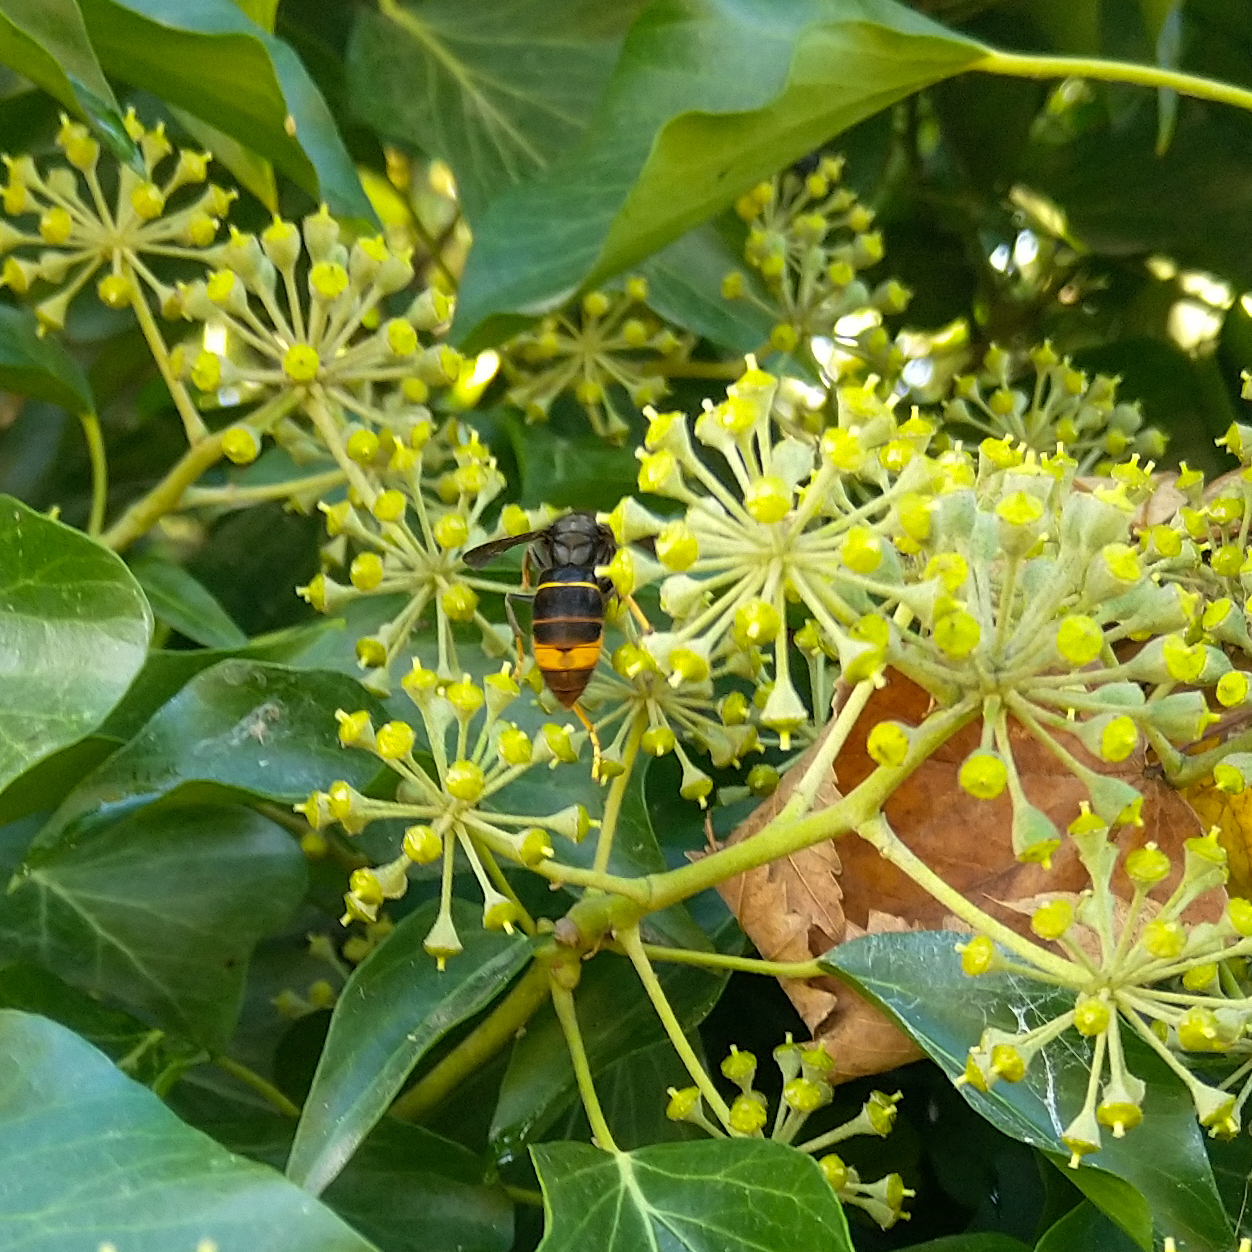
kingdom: Animalia
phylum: Arthropoda
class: Insecta
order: Hymenoptera
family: Vespidae
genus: Vespa
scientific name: Vespa velutina
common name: Asian hornet
